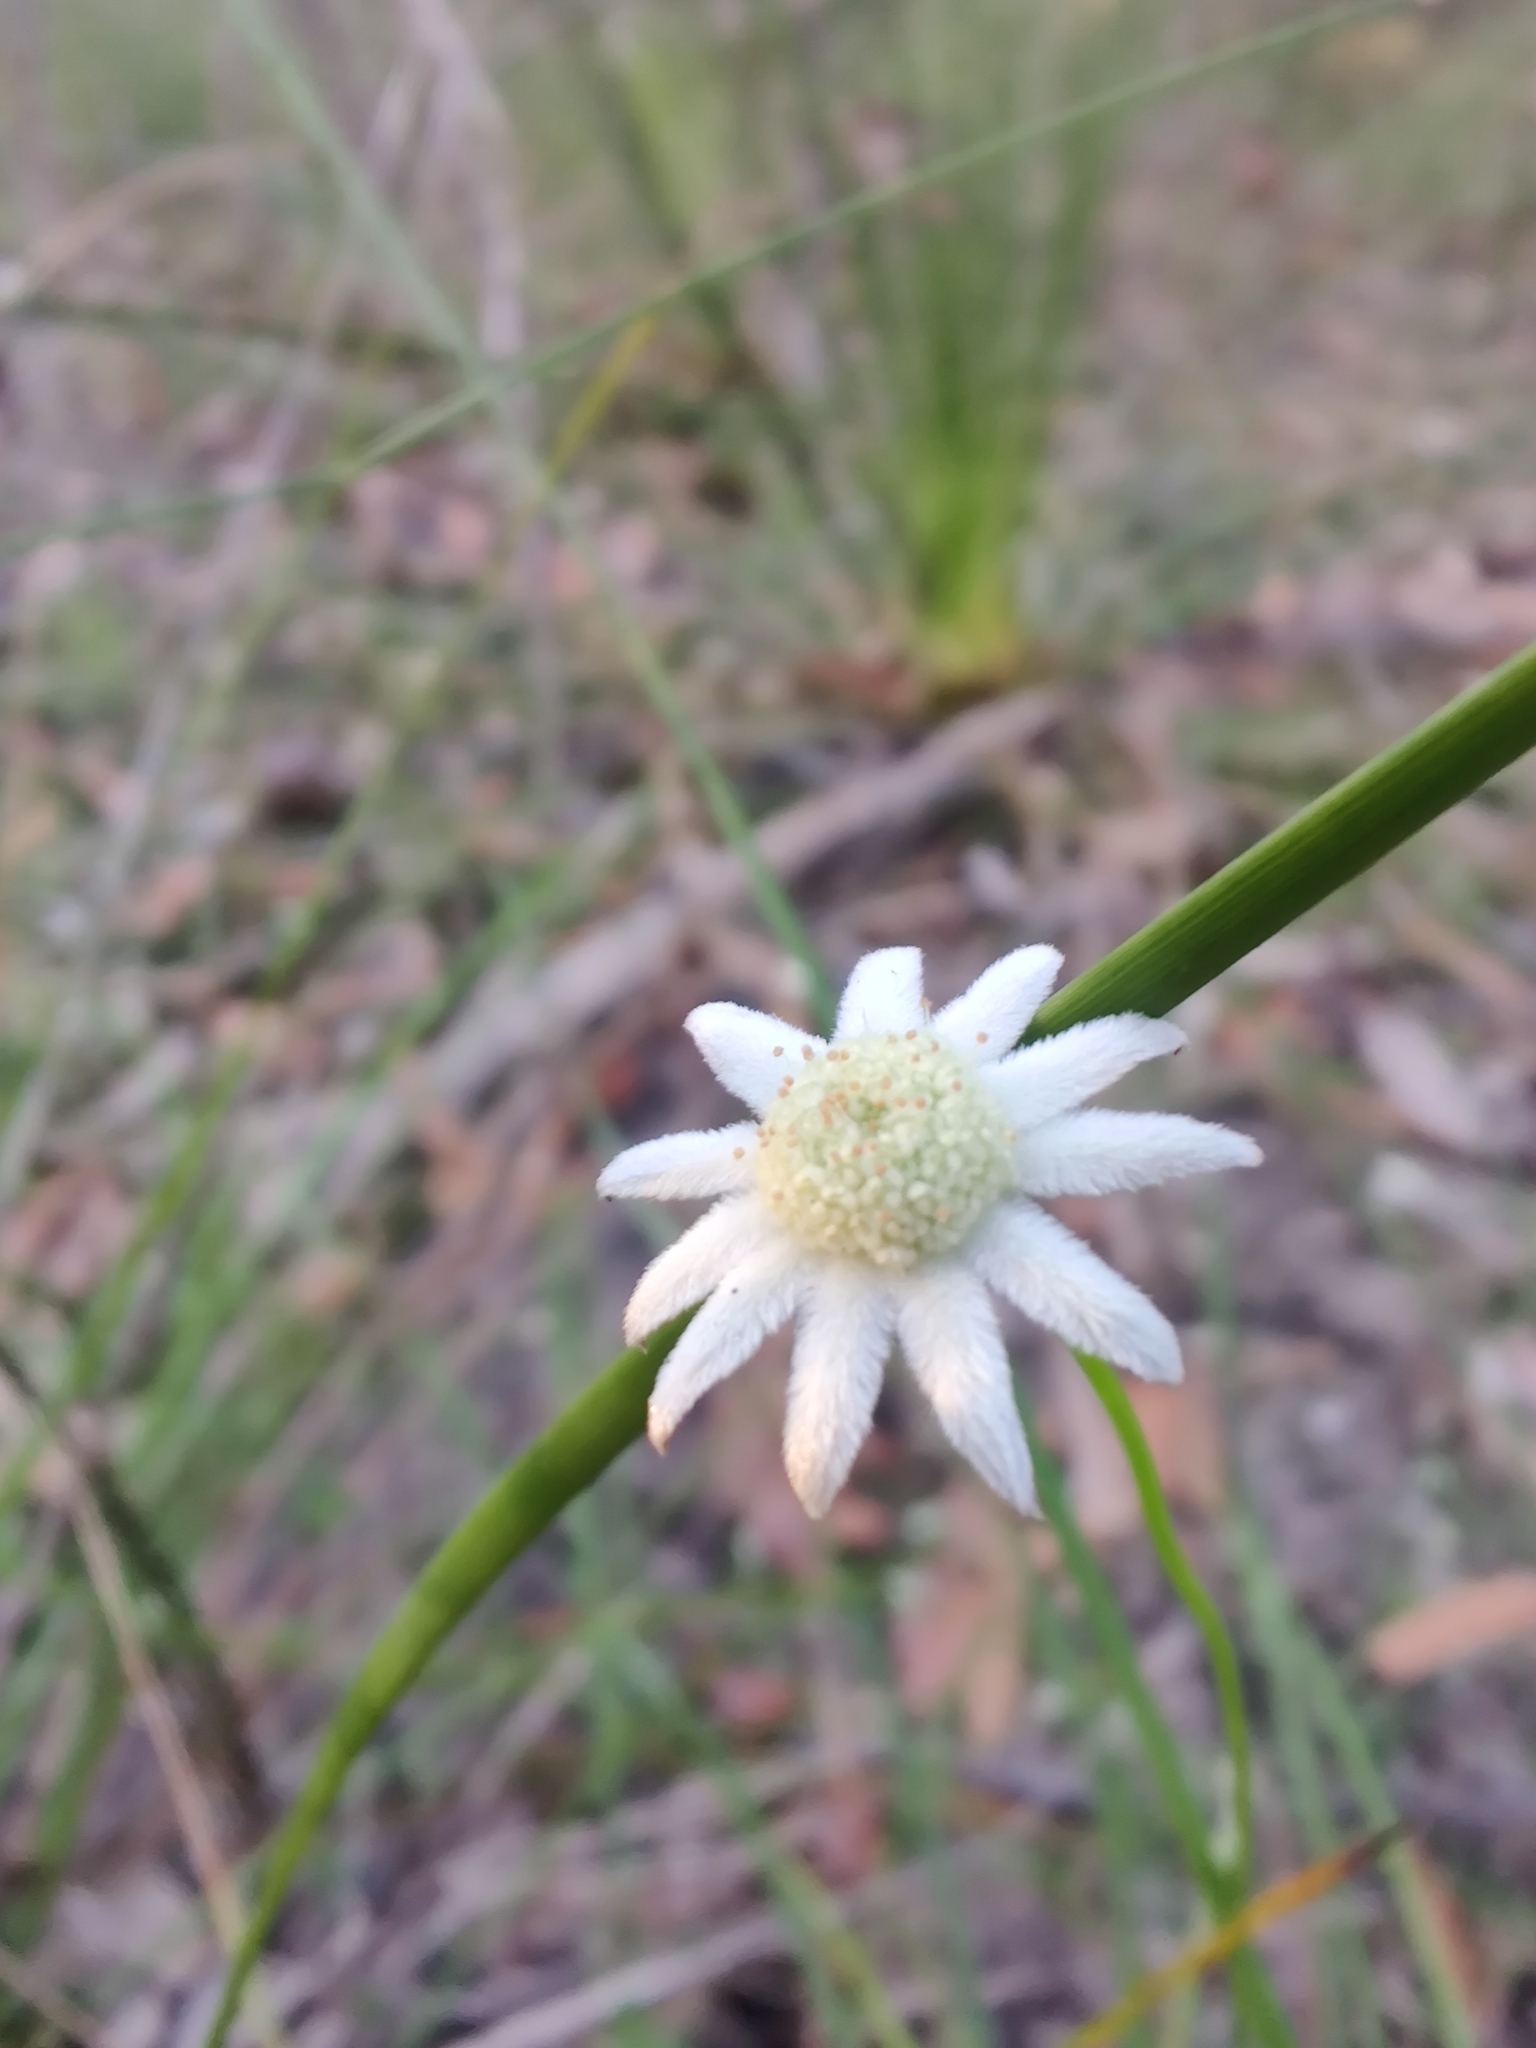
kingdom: Plantae
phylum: Tracheophyta
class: Magnoliopsida
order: Apiales
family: Apiaceae
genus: Actinotus
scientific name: Actinotus minor
